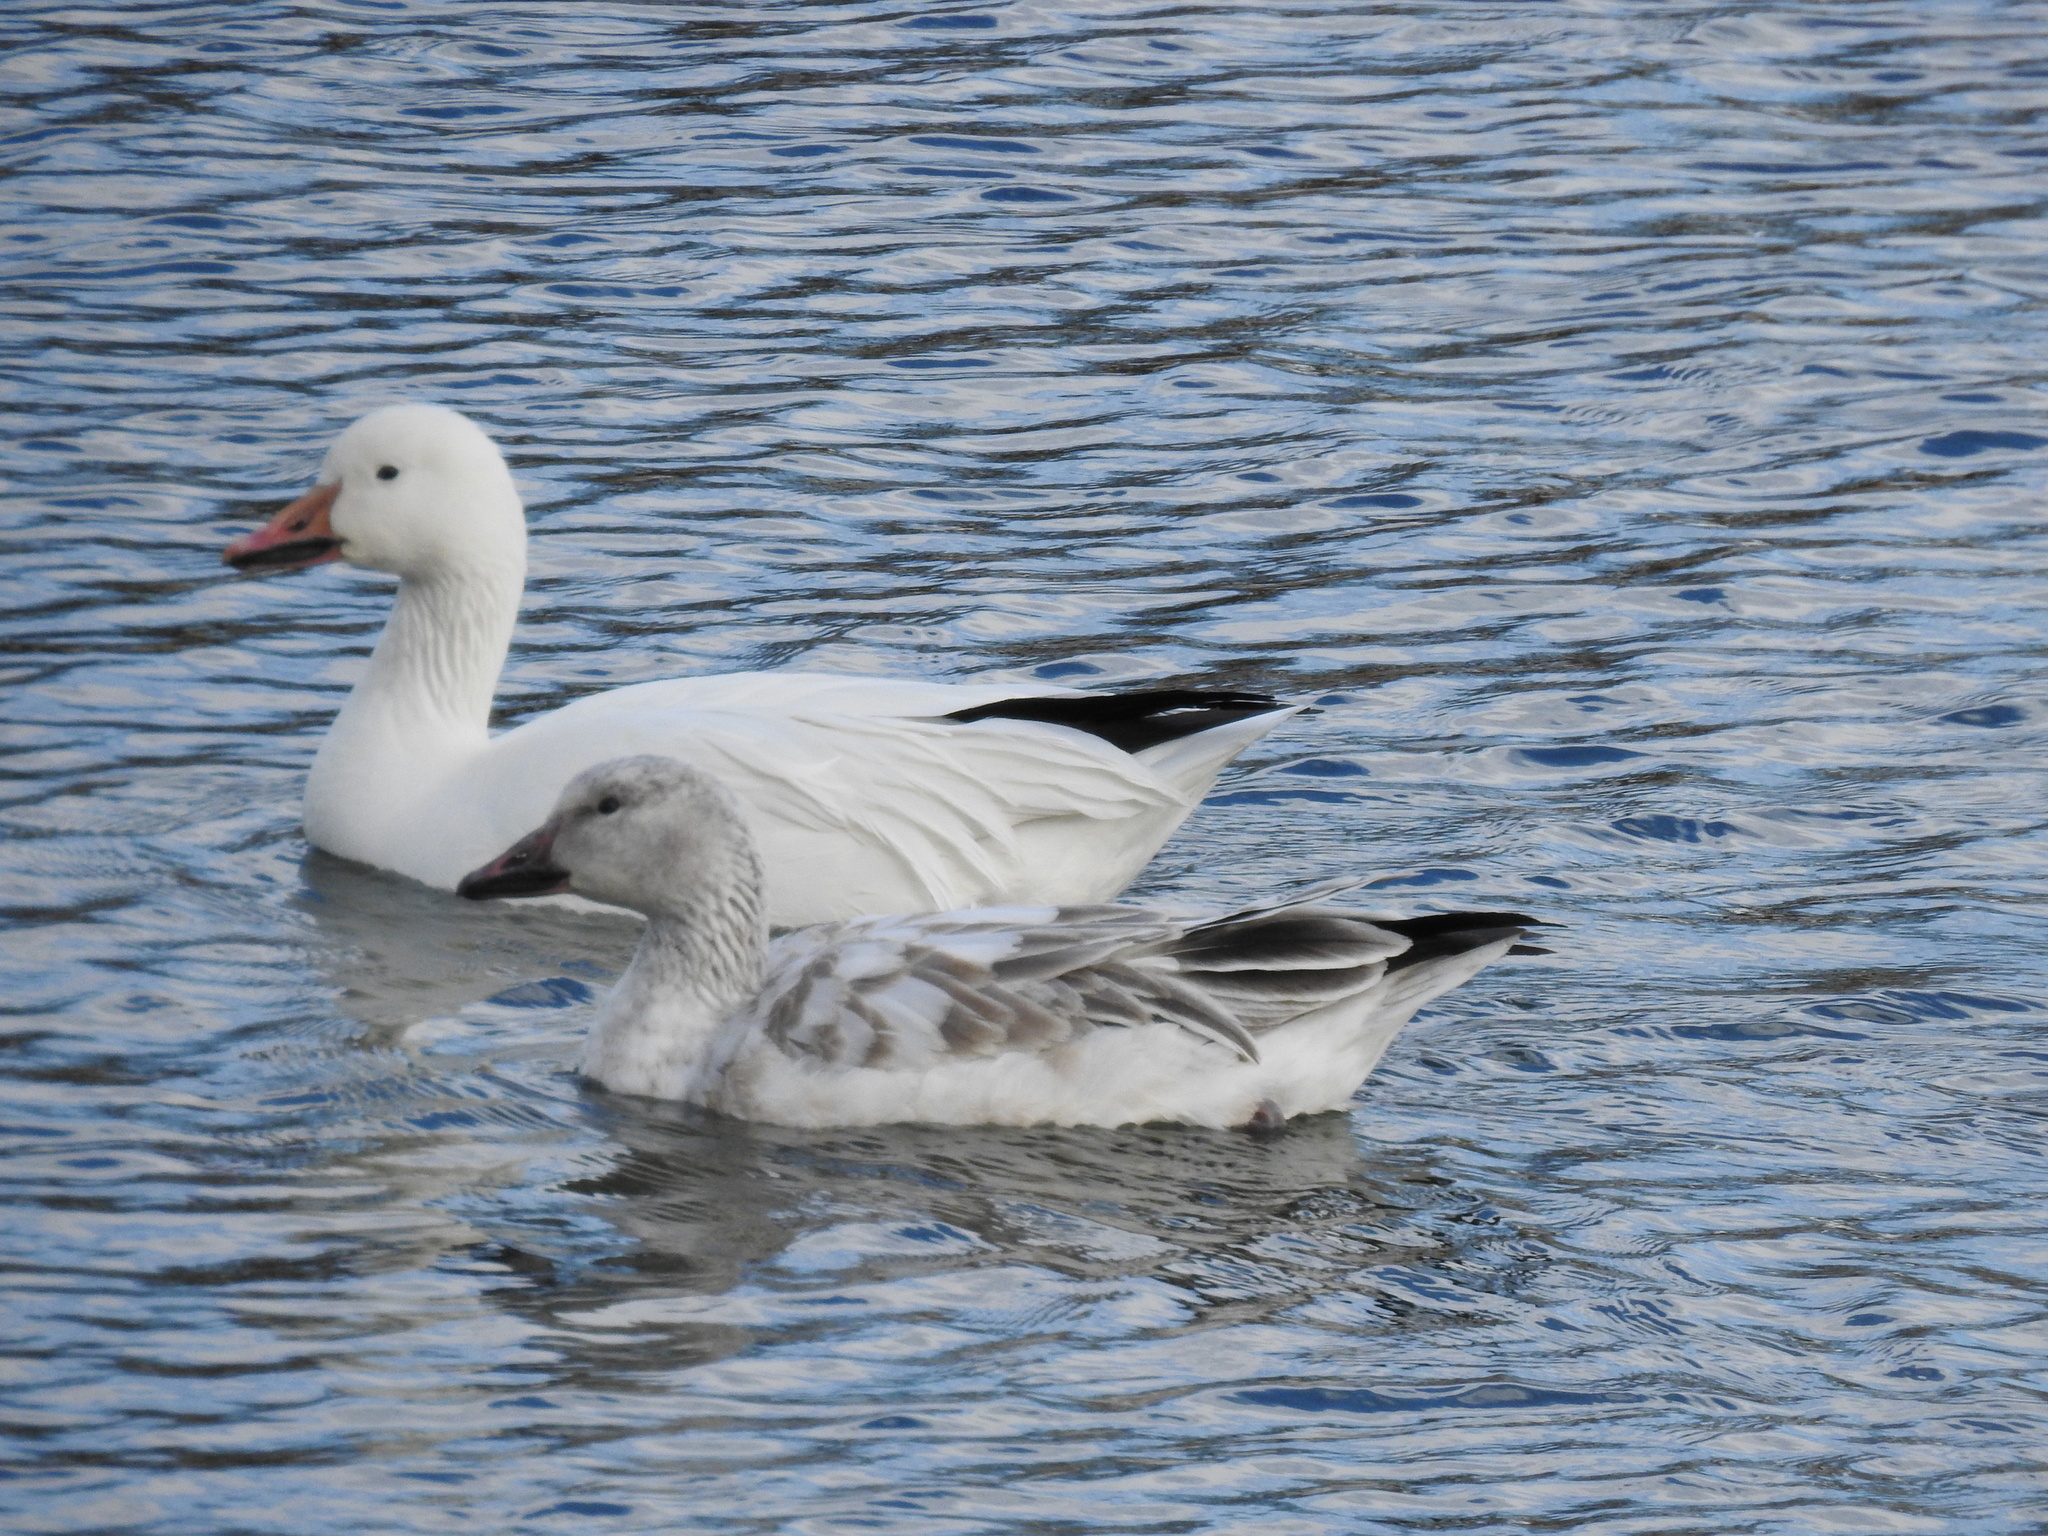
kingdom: Animalia
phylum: Chordata
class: Aves
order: Anseriformes
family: Anatidae
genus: Anser
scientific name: Anser caerulescens
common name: Snow goose
